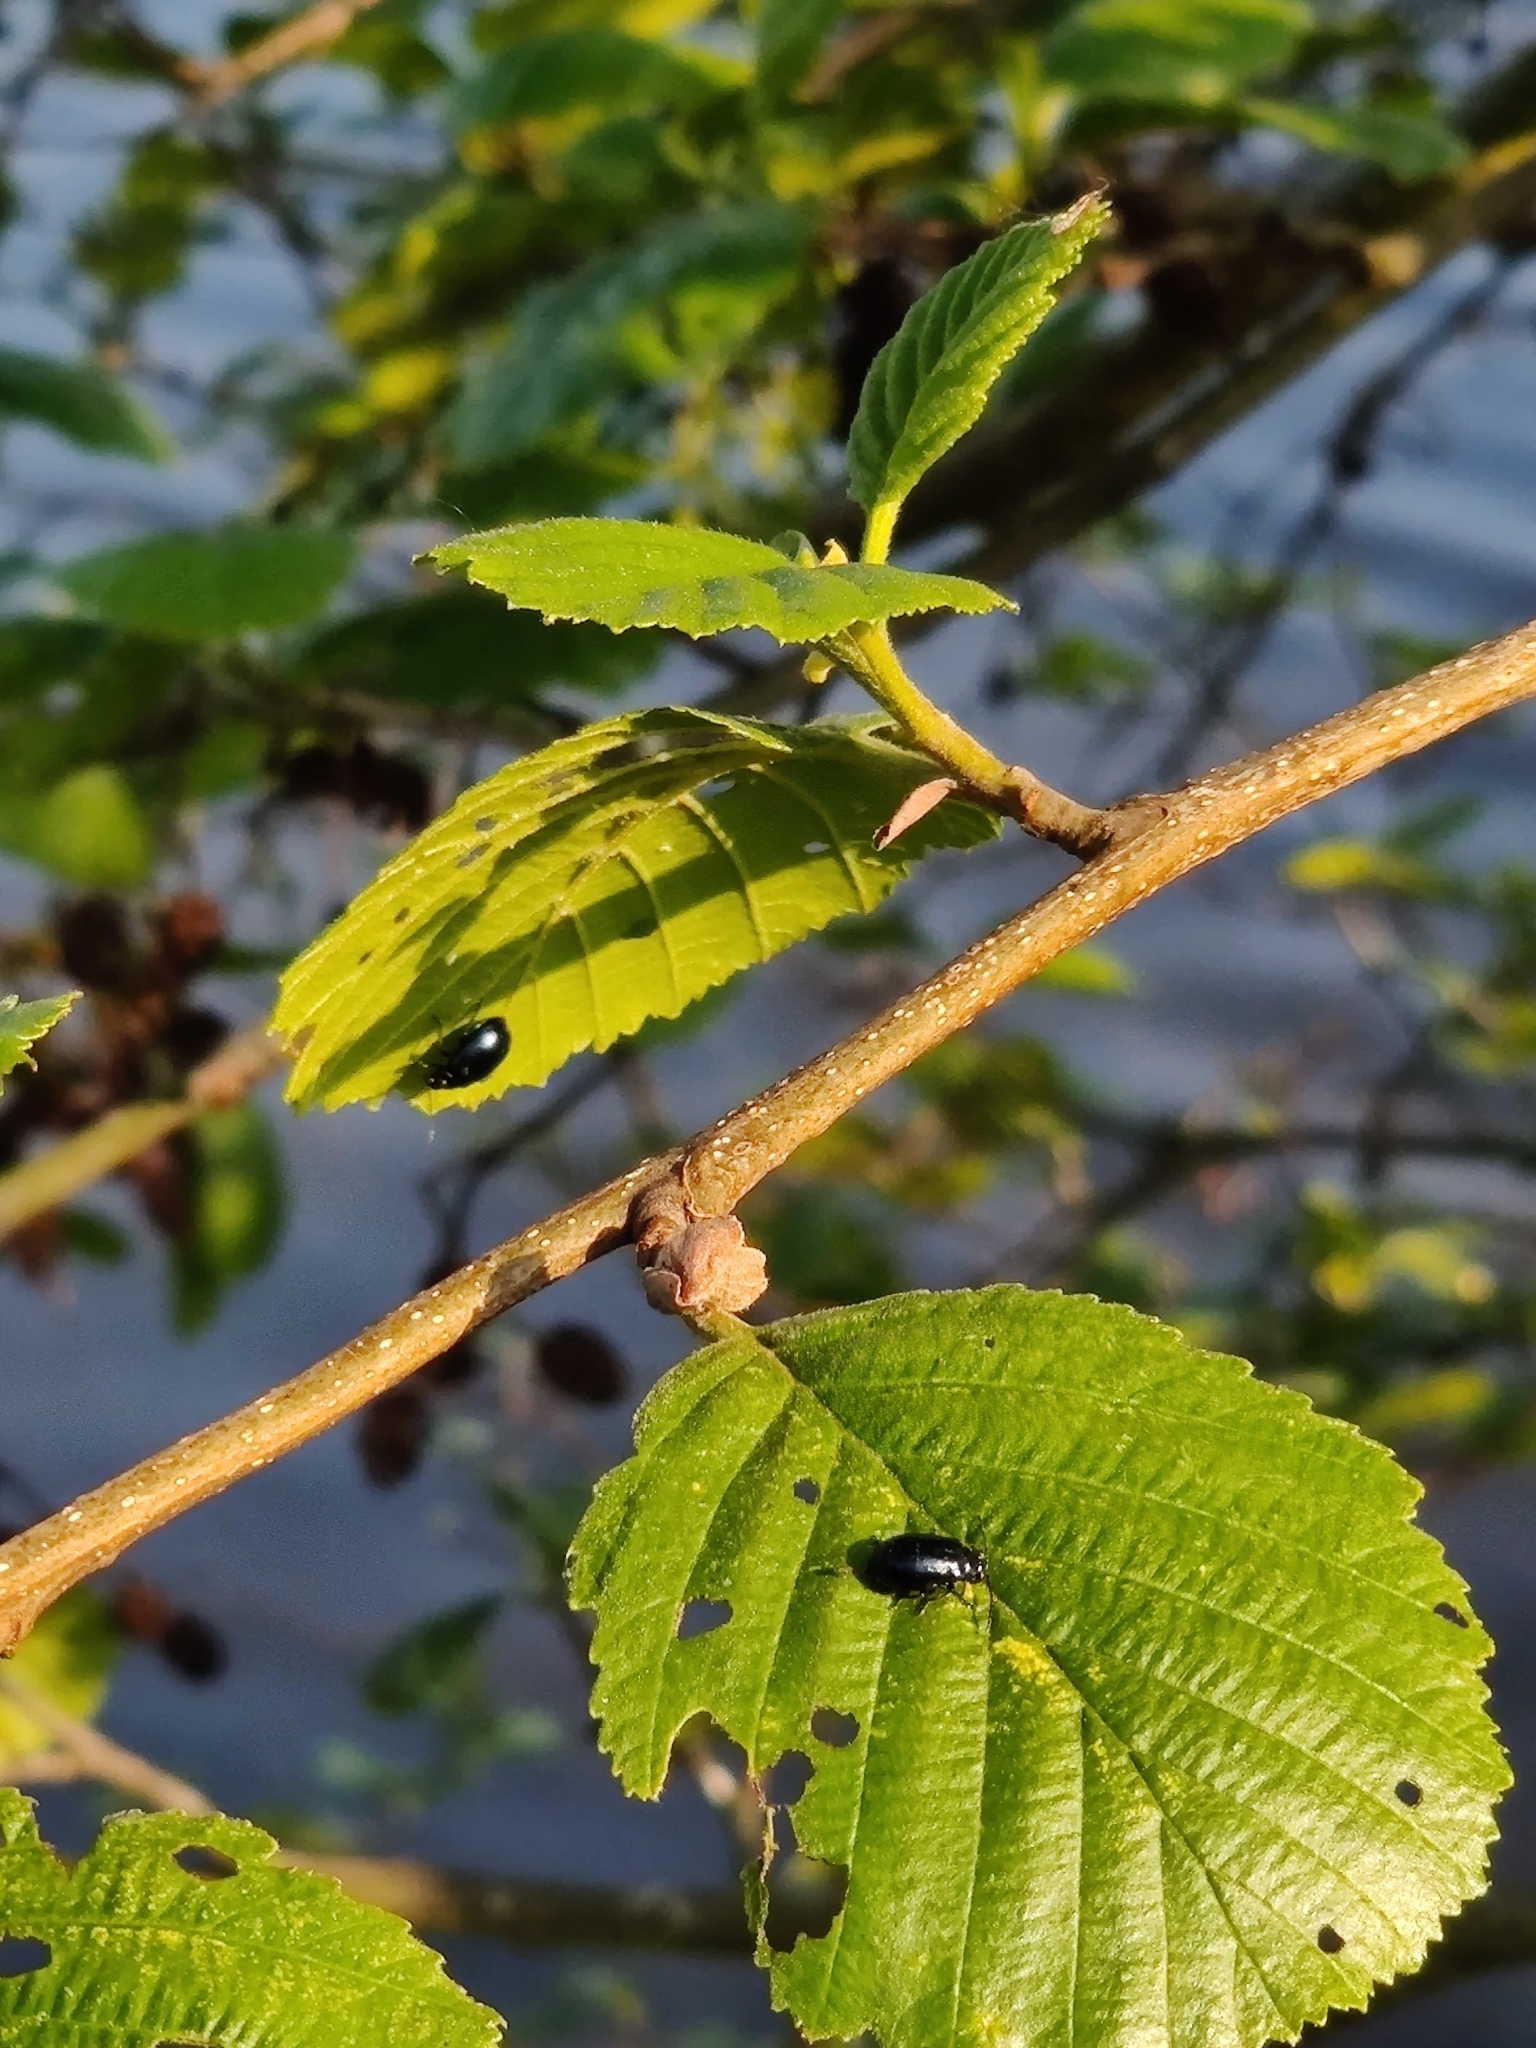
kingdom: Animalia
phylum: Arthropoda
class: Insecta
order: Coleoptera
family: Chrysomelidae
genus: Agelastica
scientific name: Agelastica alni
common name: Alder leaf beetle
